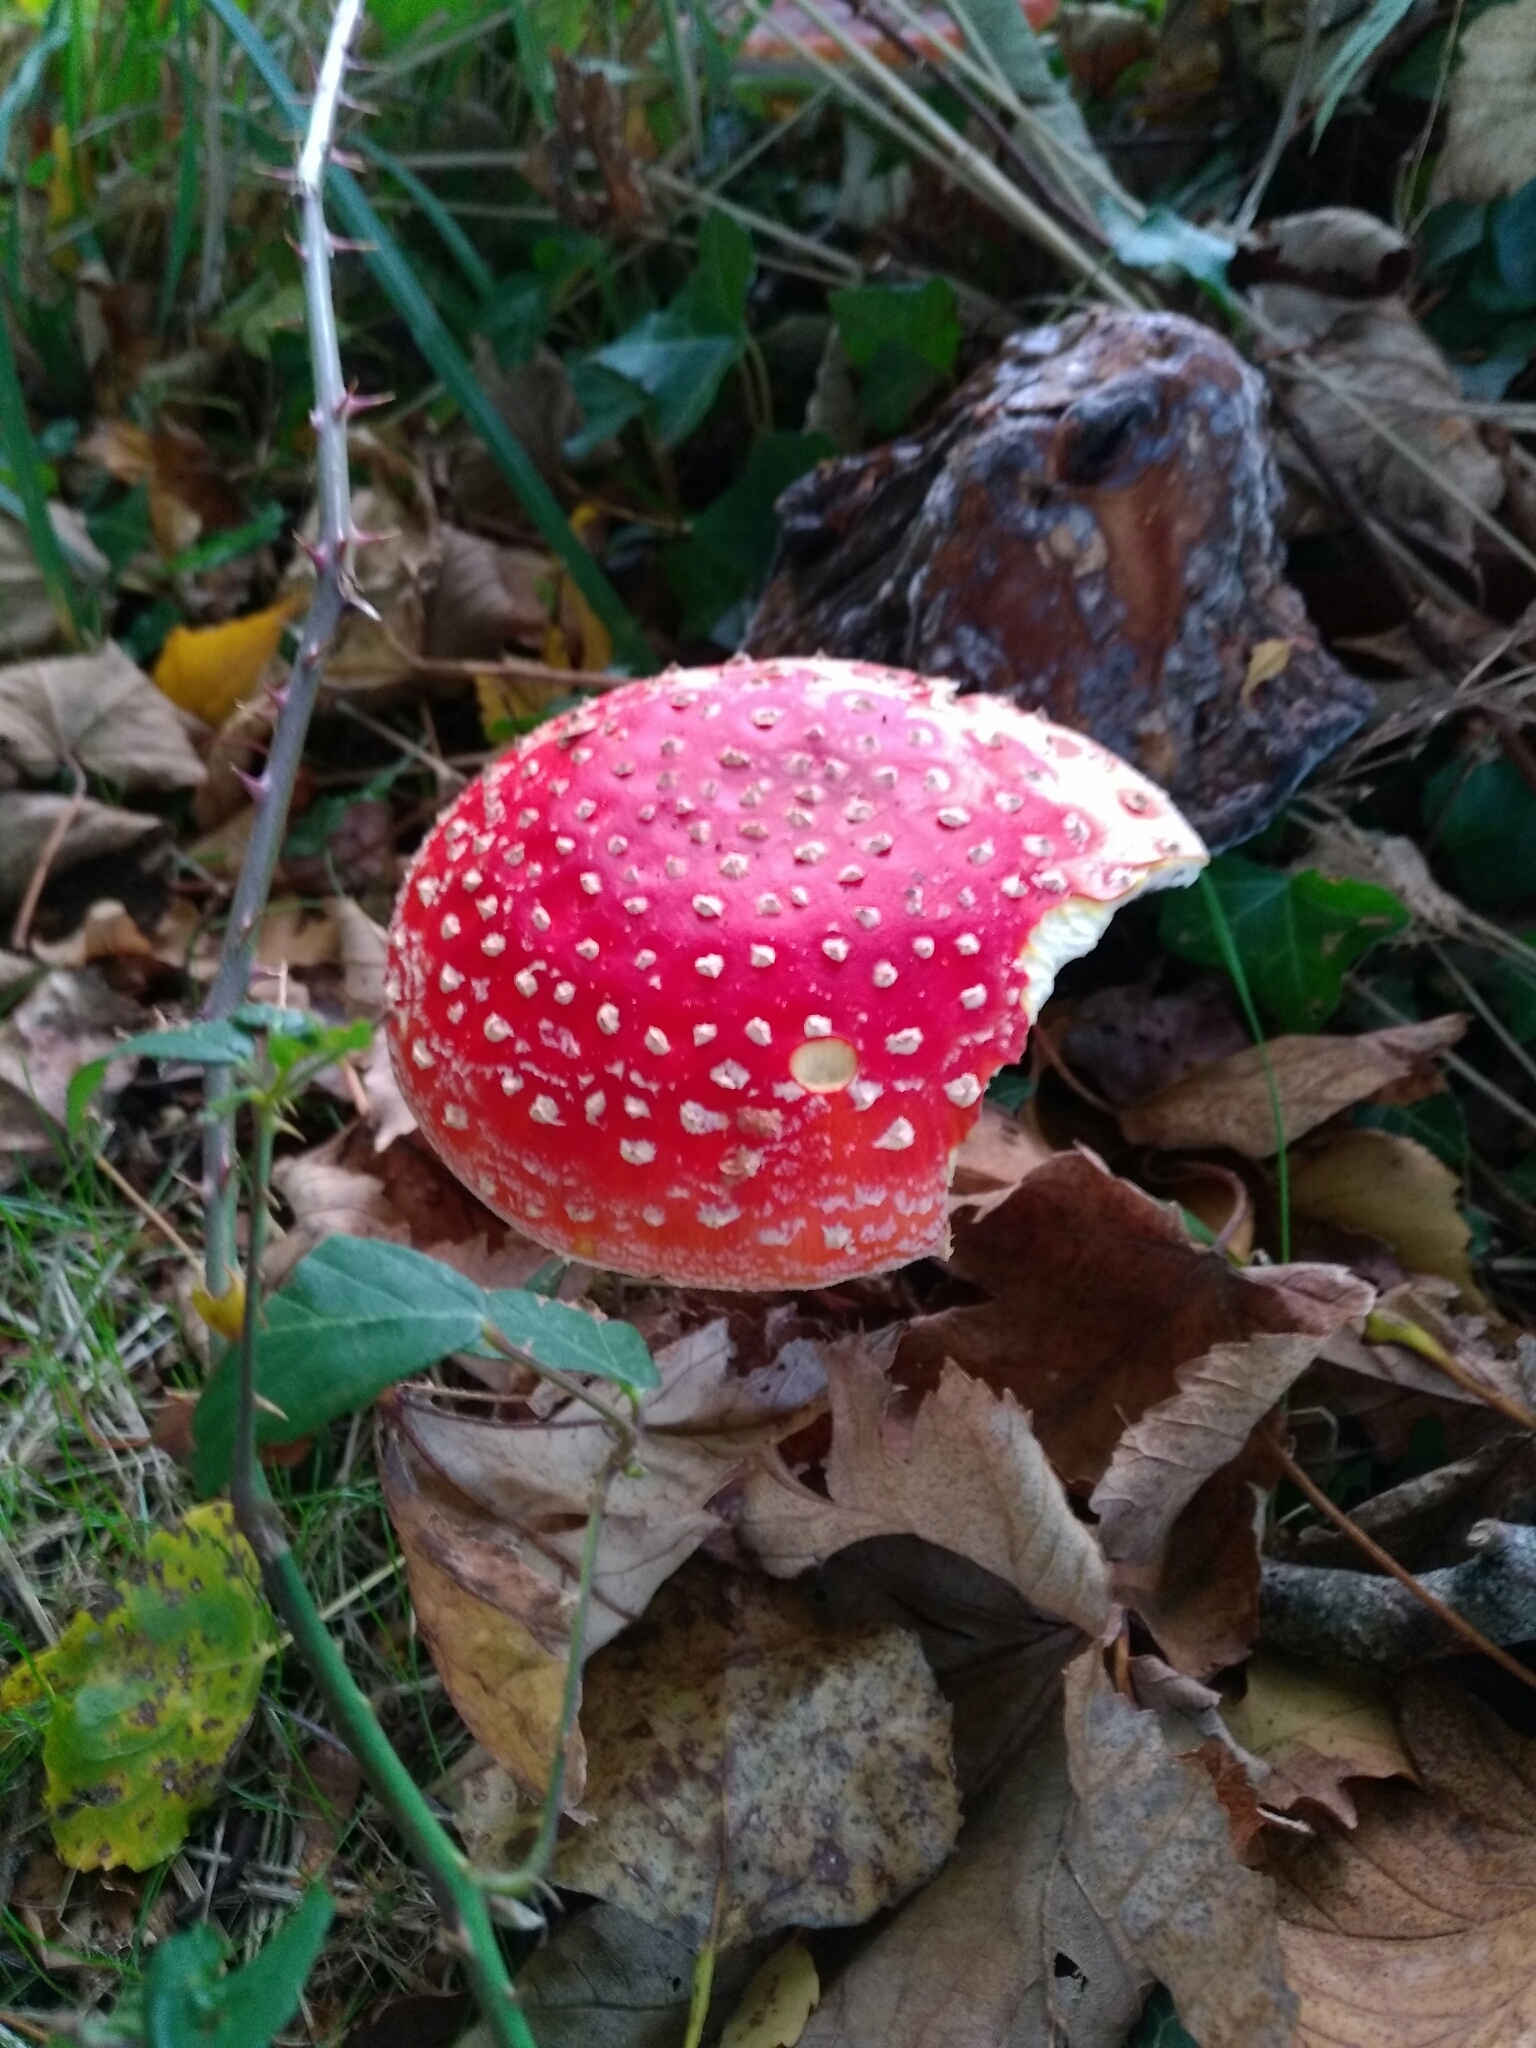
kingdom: Fungi
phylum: Basidiomycota
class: Agaricomycetes
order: Agaricales
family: Amanitaceae
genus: Amanita
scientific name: Amanita muscaria
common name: Fly agaric
